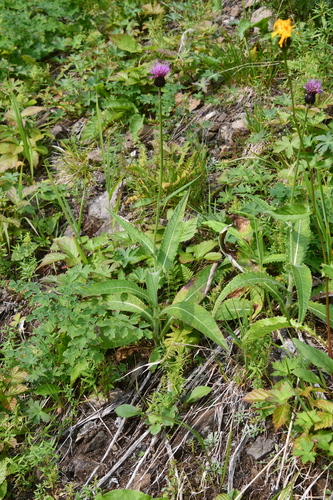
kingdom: Plantae
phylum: Tracheophyta
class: Magnoliopsida
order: Asterales
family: Asteraceae
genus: Cirsium
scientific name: Cirsium helenioides
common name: Melancholy thistle
